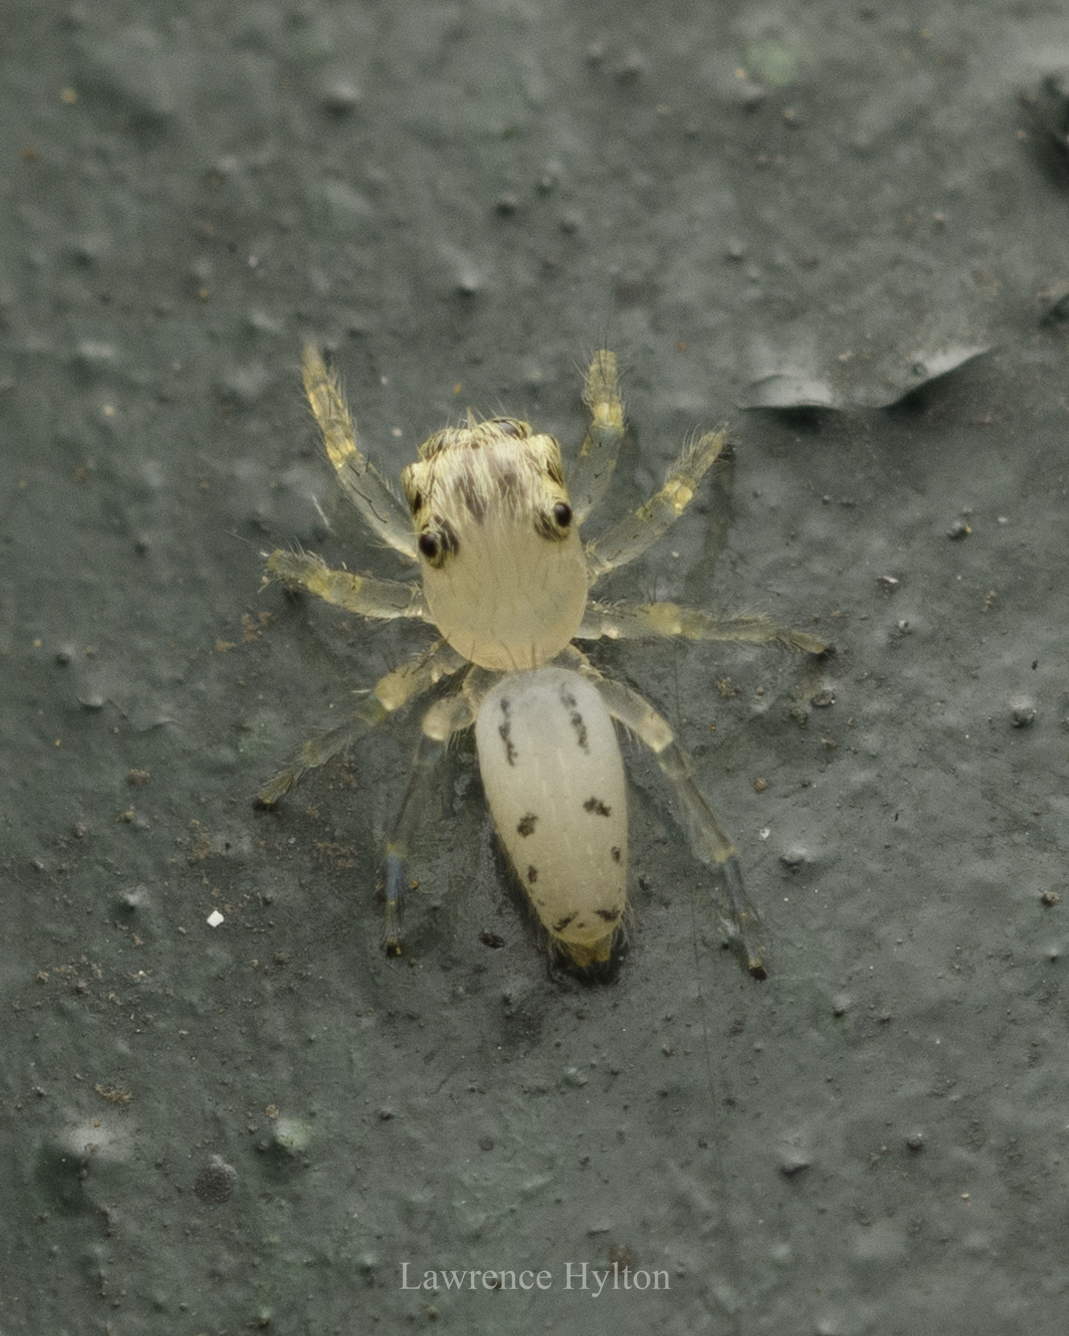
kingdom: Animalia
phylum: Arthropoda
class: Arachnida
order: Araneae
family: Salticidae
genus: Telamonia
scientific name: Telamonia caprina
